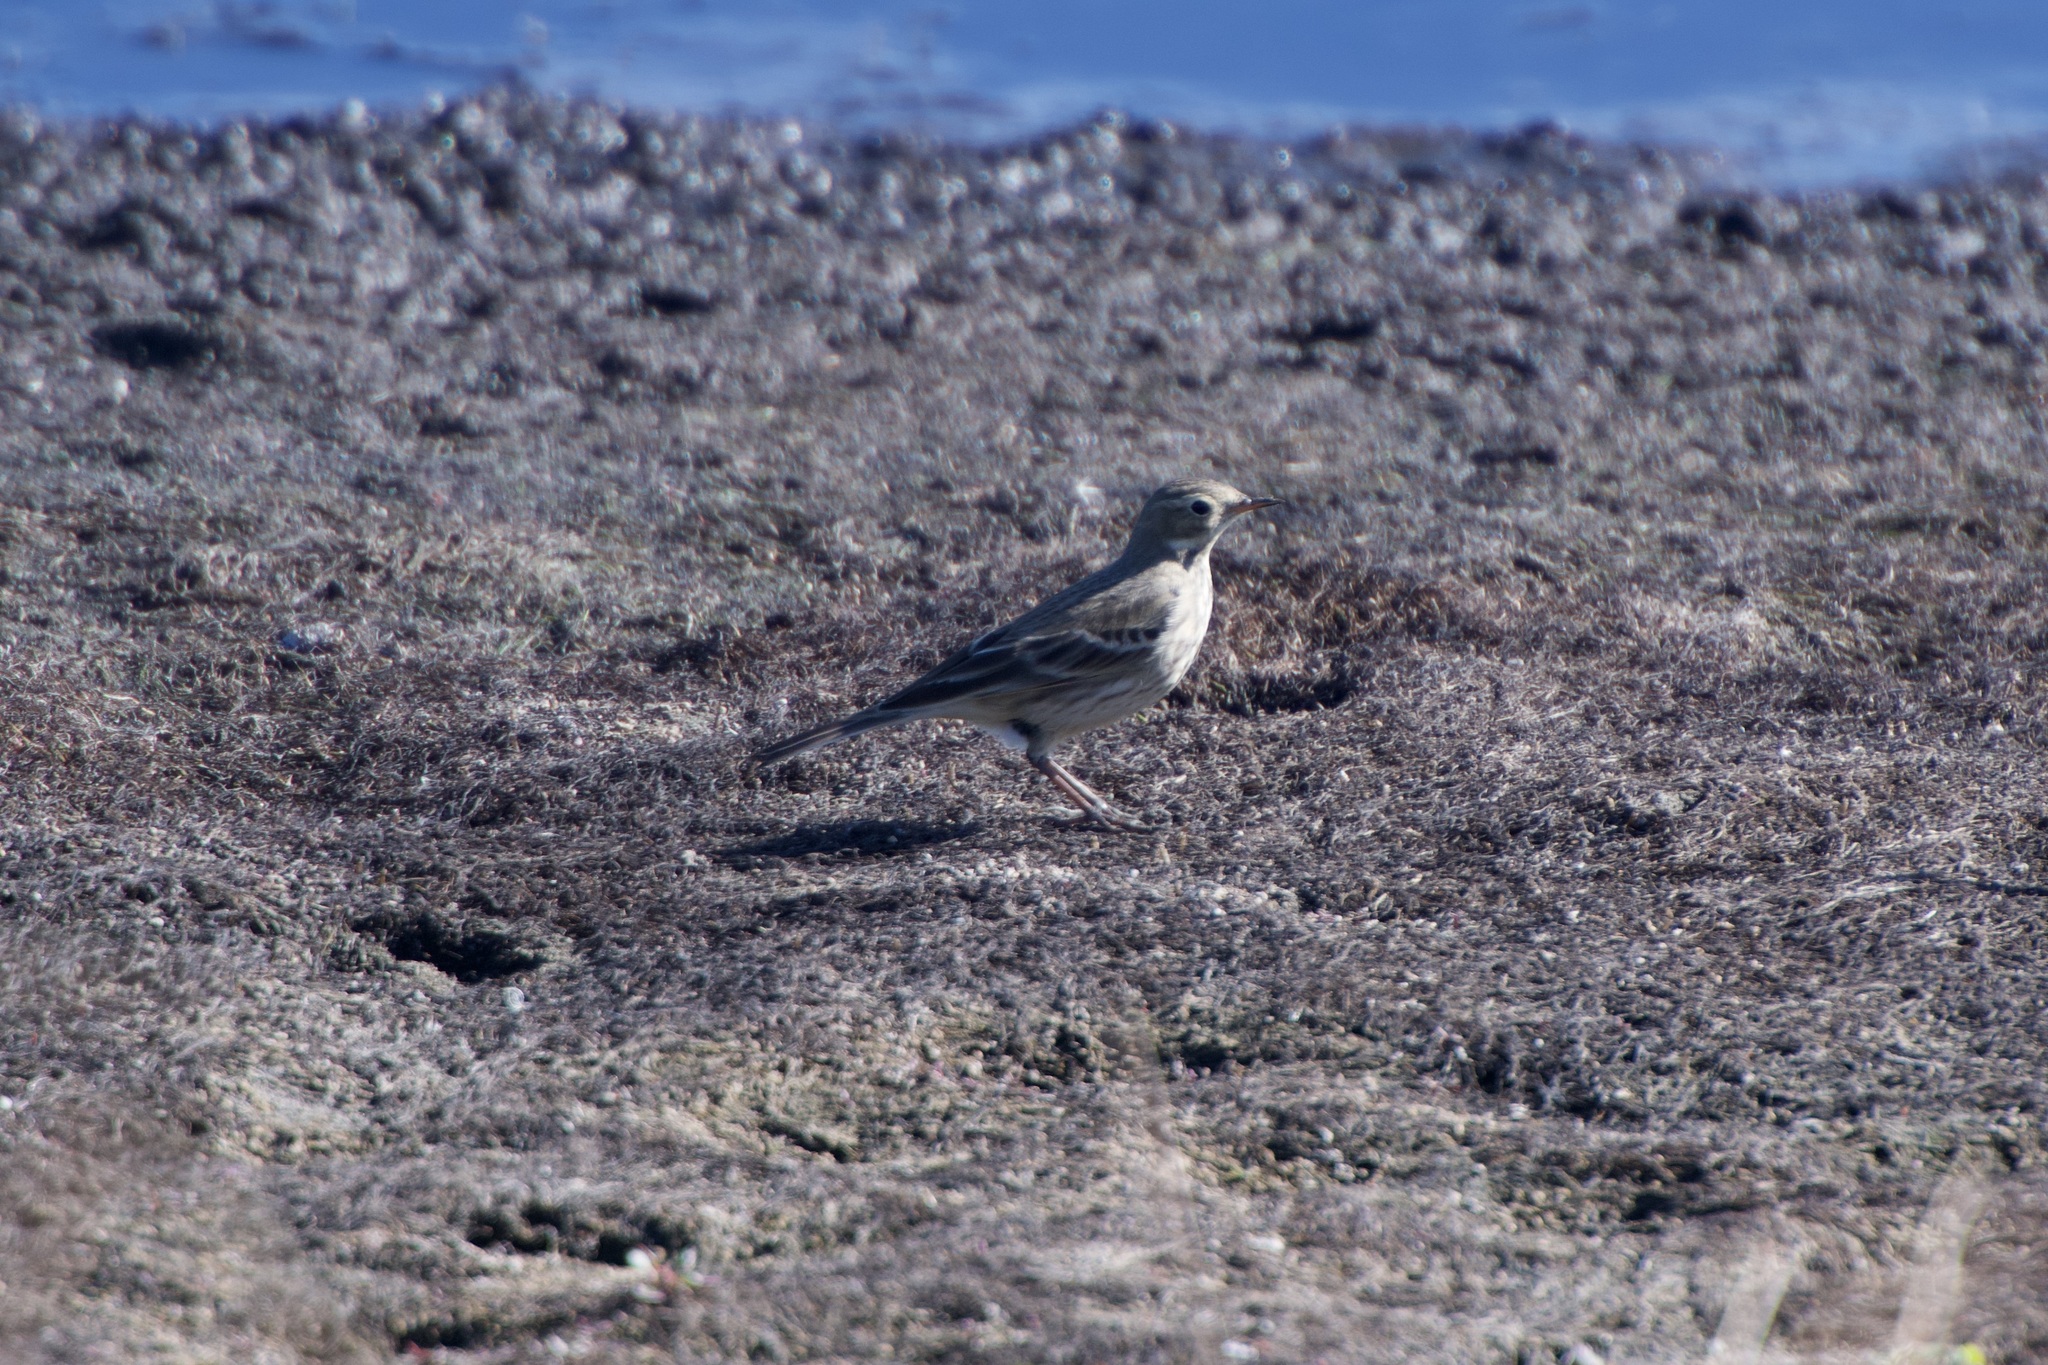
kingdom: Animalia
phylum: Chordata
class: Aves
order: Passeriformes
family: Motacillidae
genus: Anthus
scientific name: Anthus rubescens
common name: Buff-bellied pipit
